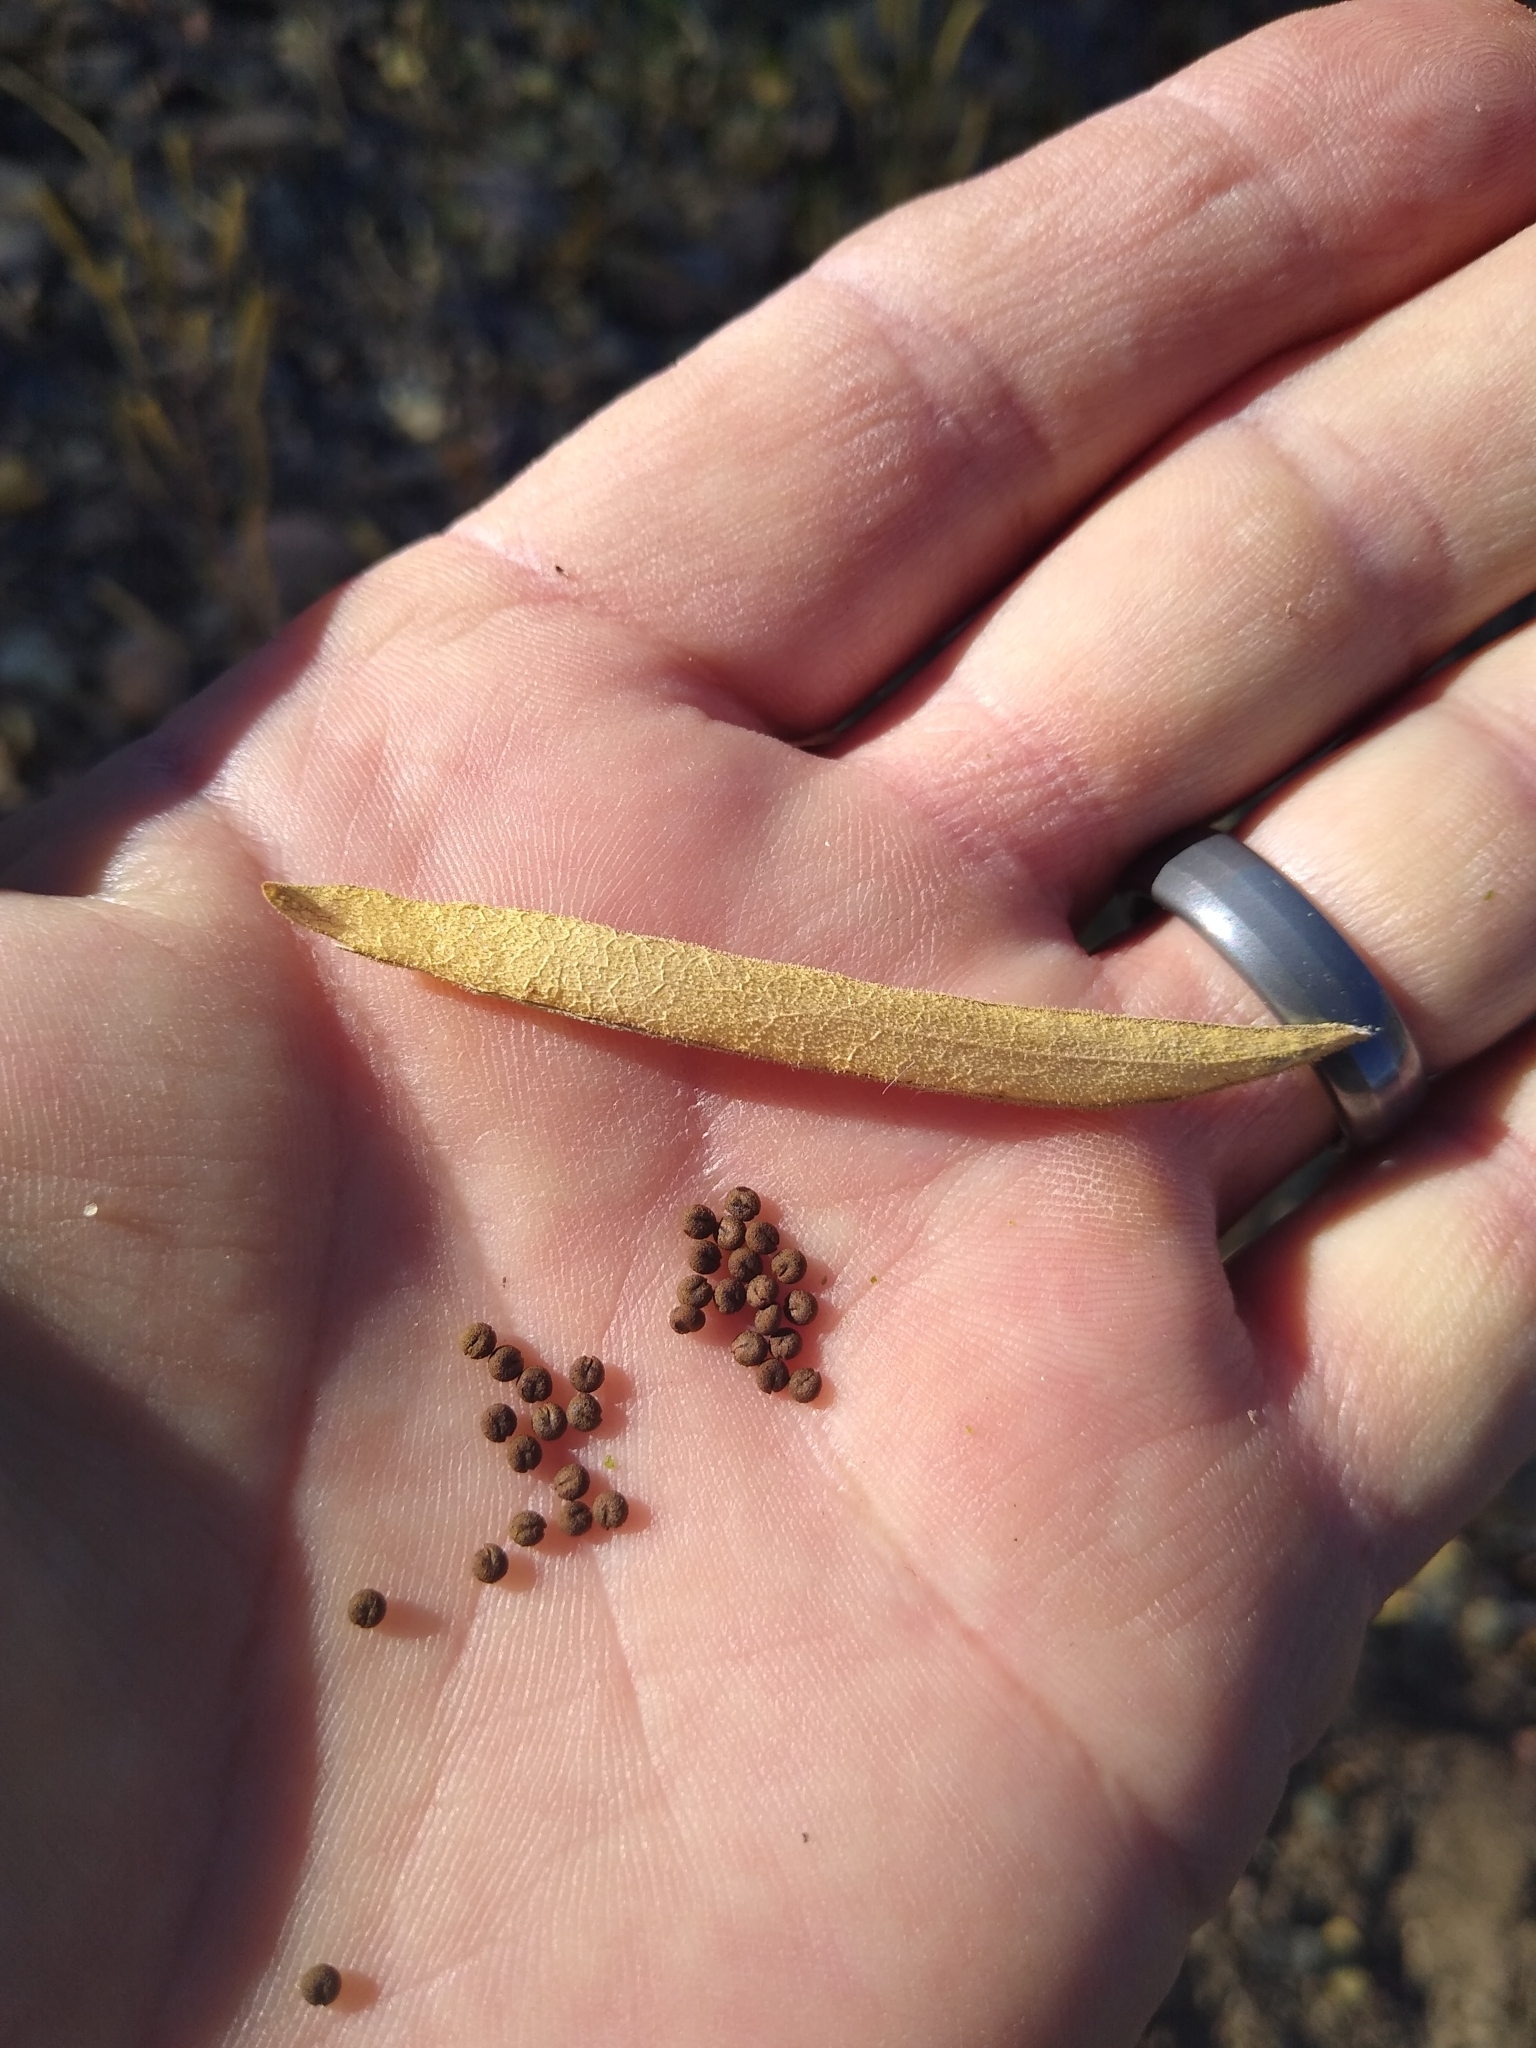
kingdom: Plantae
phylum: Tracheophyta
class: Magnoliopsida
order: Brassicales
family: Cleomaceae
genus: Polanisia
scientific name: Polanisia dodecandra
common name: Clammyweed
